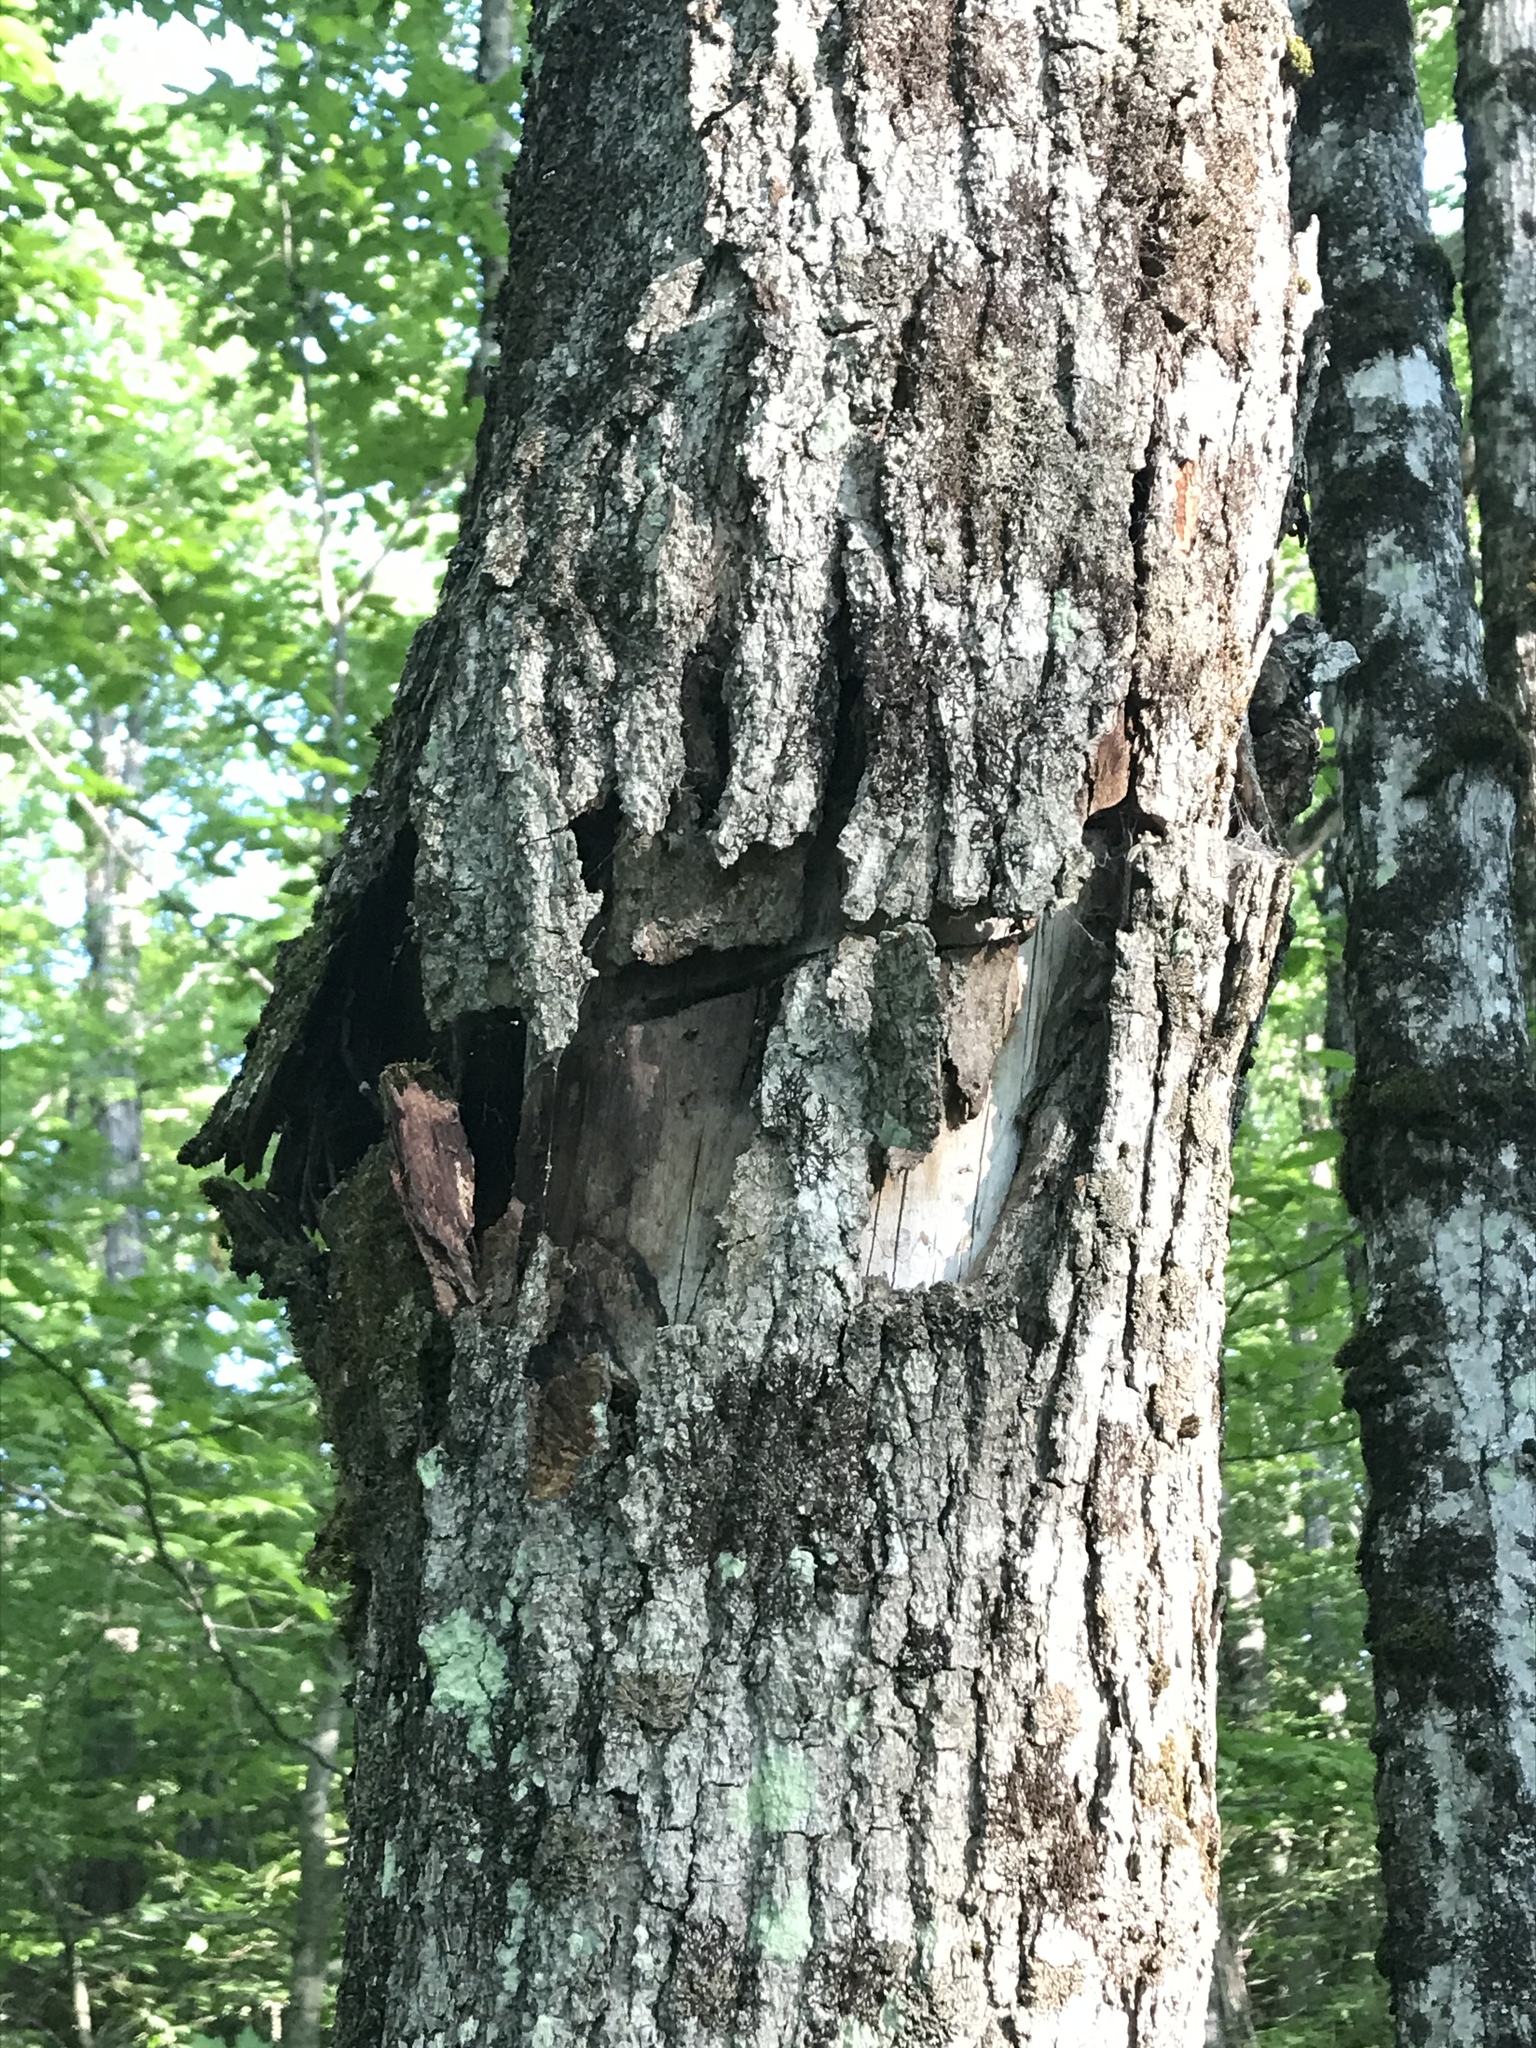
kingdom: Animalia
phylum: Arthropoda
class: Insecta
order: Coleoptera
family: Cerambycidae
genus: Glycobius
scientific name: Glycobius speciosus
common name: Sugar maple borer
